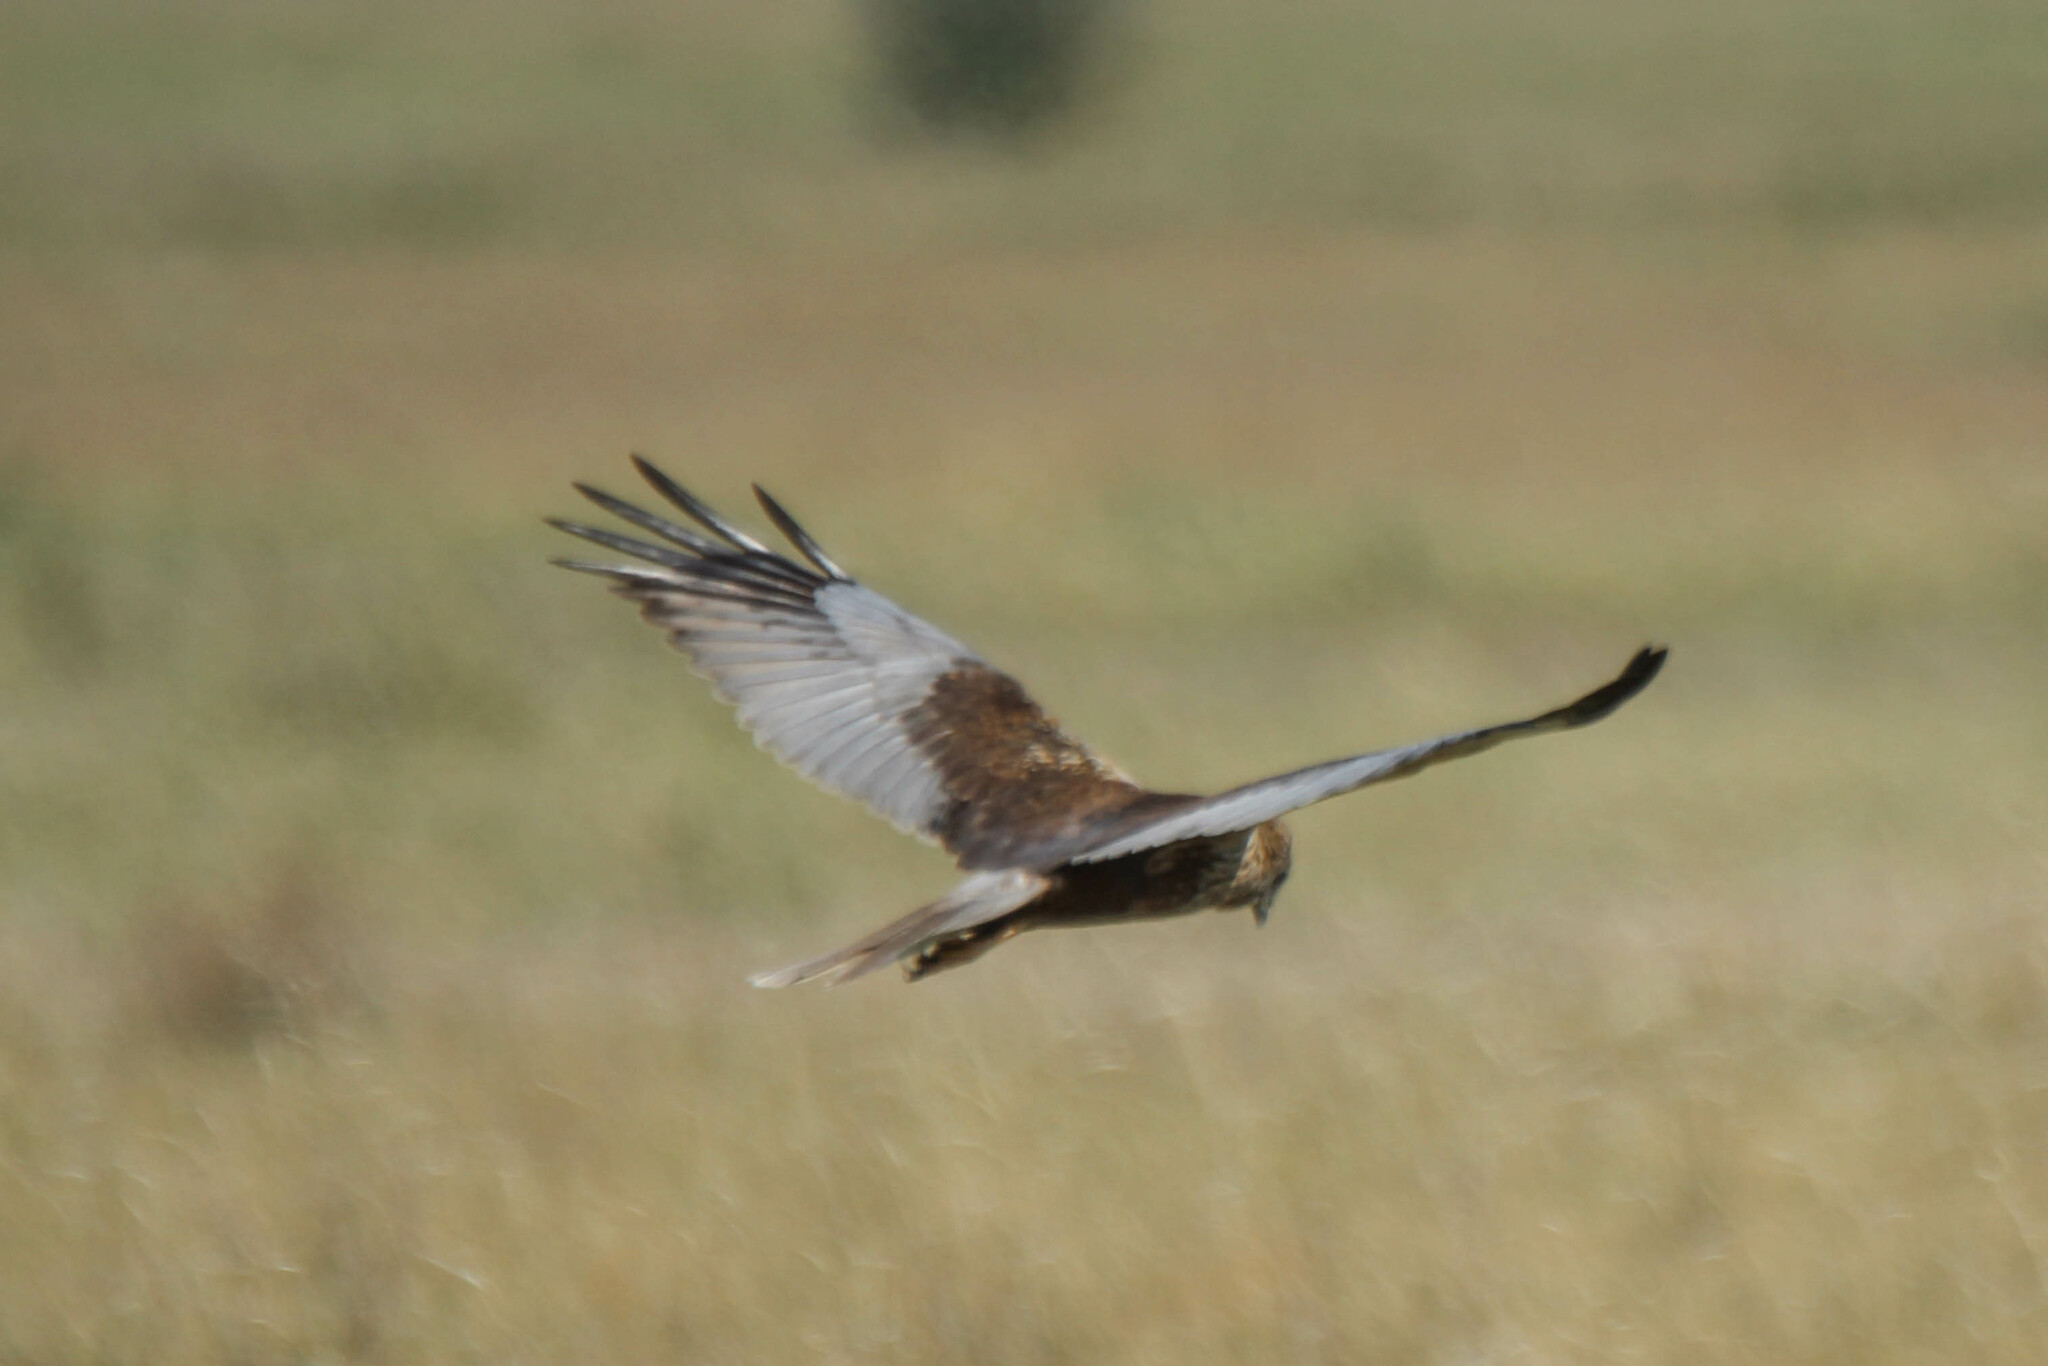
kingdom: Animalia
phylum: Chordata
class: Aves
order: Accipitriformes
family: Accipitridae
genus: Circus
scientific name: Circus aeruginosus
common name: Western marsh harrier
